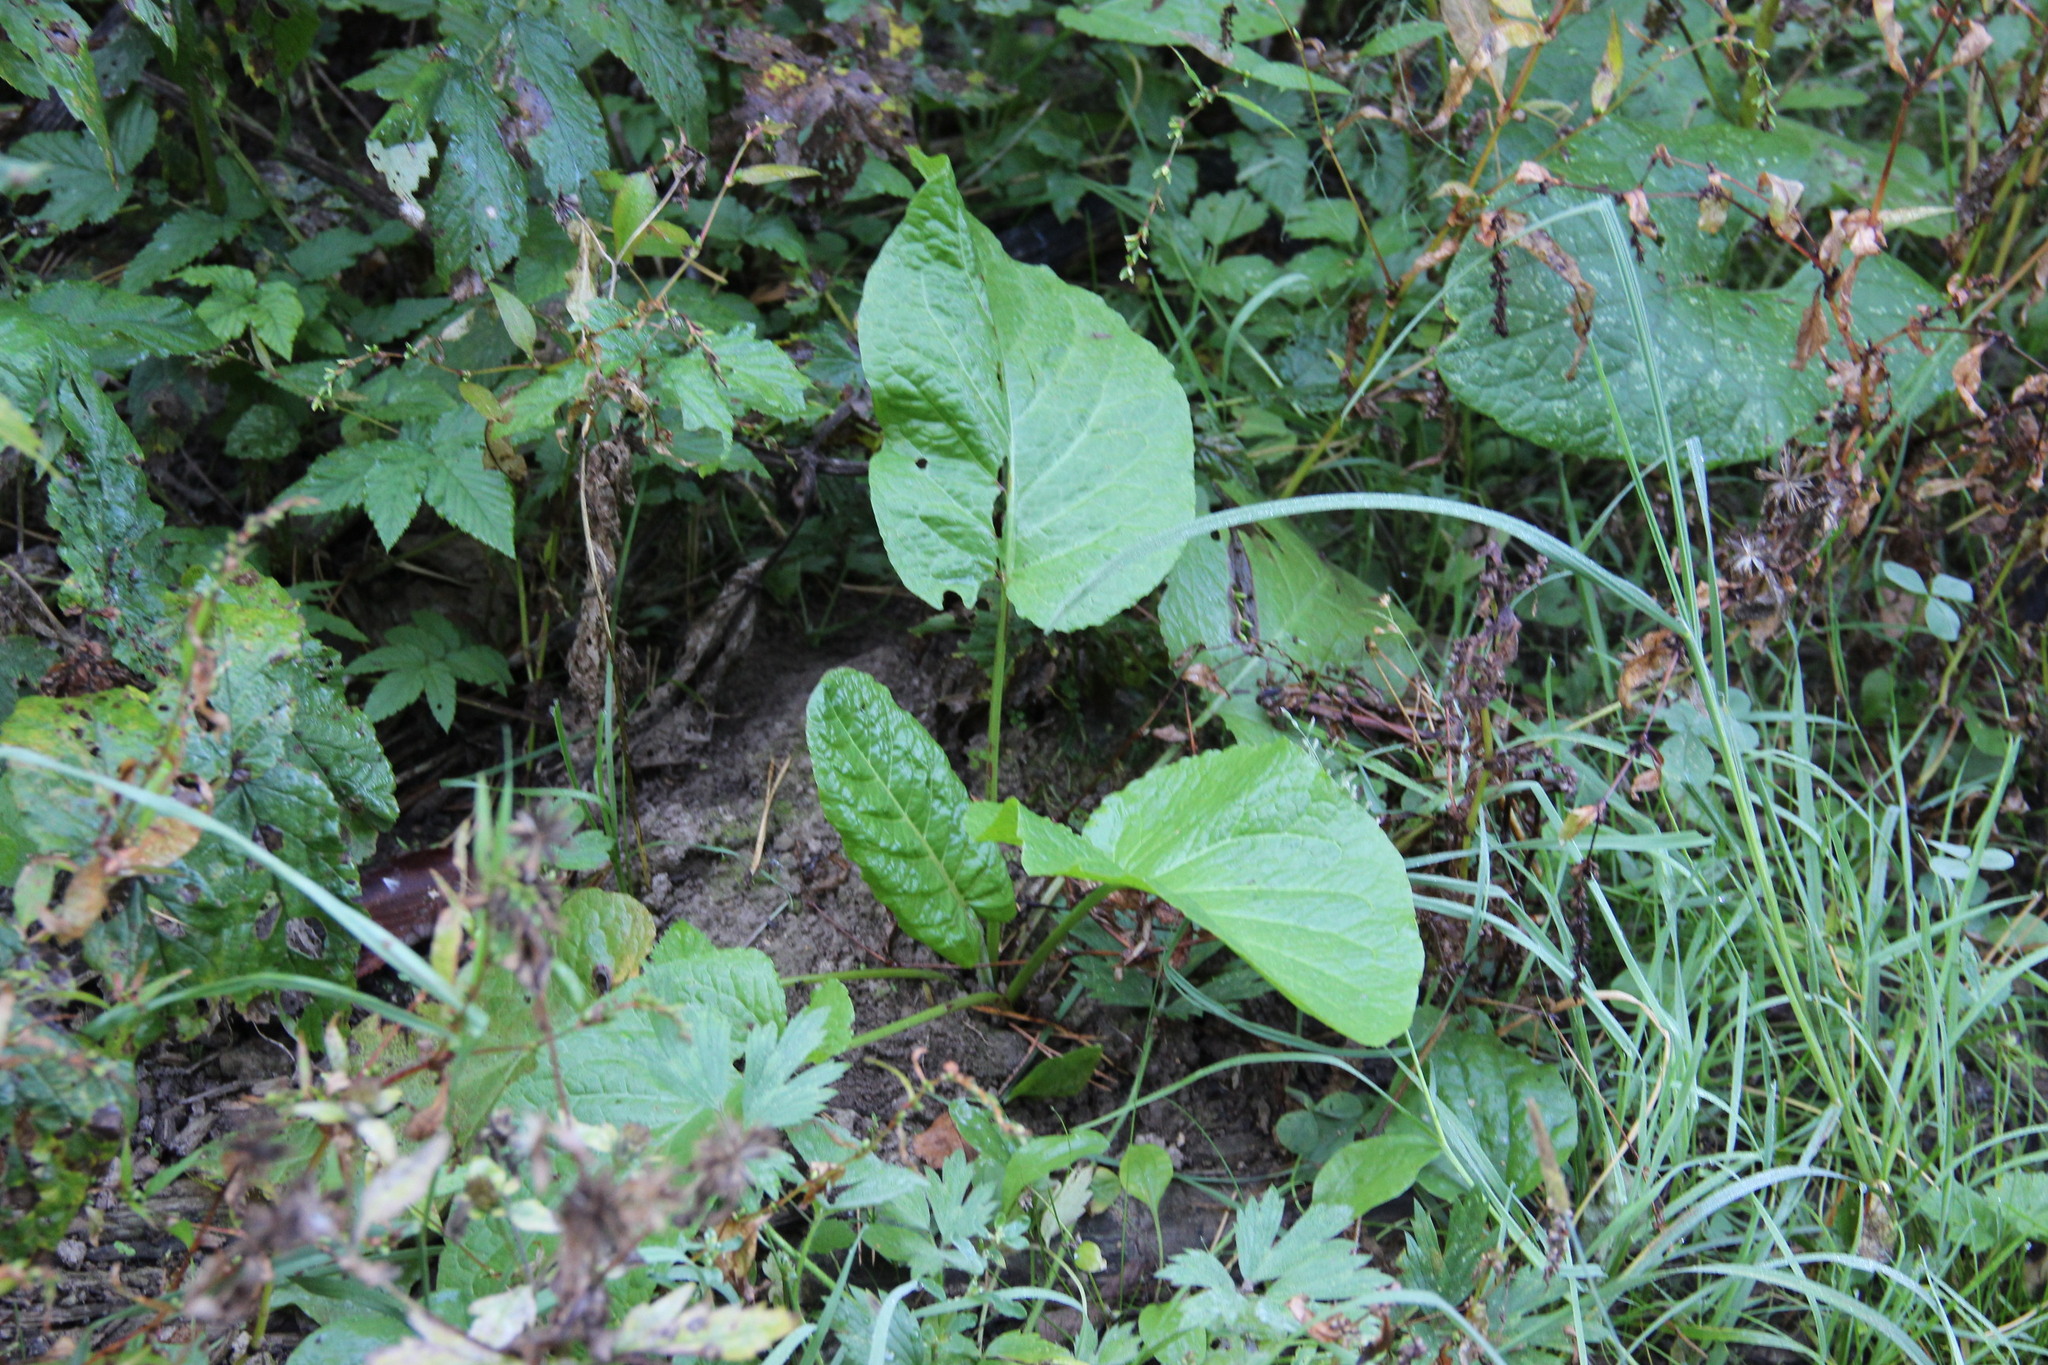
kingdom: Plantae
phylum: Tracheophyta
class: Magnoliopsida
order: Caryophyllales
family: Polygonaceae
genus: Rumex
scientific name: Rumex obtusifolius
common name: Bitter dock
